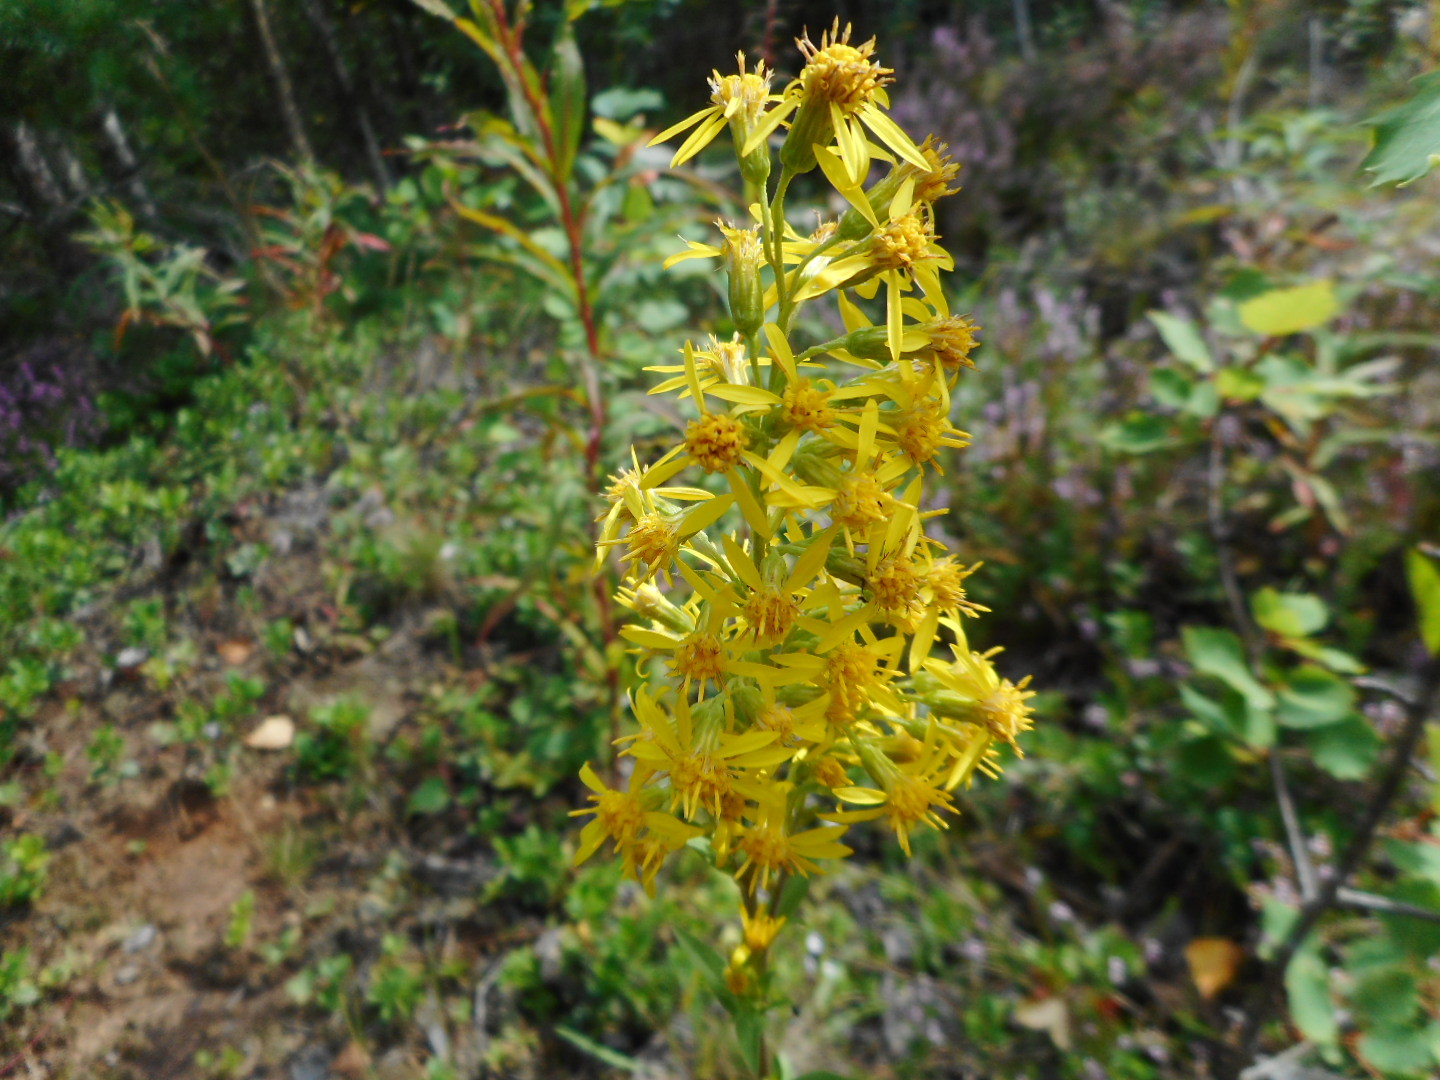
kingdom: Plantae
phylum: Tracheophyta
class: Magnoliopsida
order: Asterales
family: Asteraceae
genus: Solidago
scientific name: Solidago virgaurea
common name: Goldenrod
